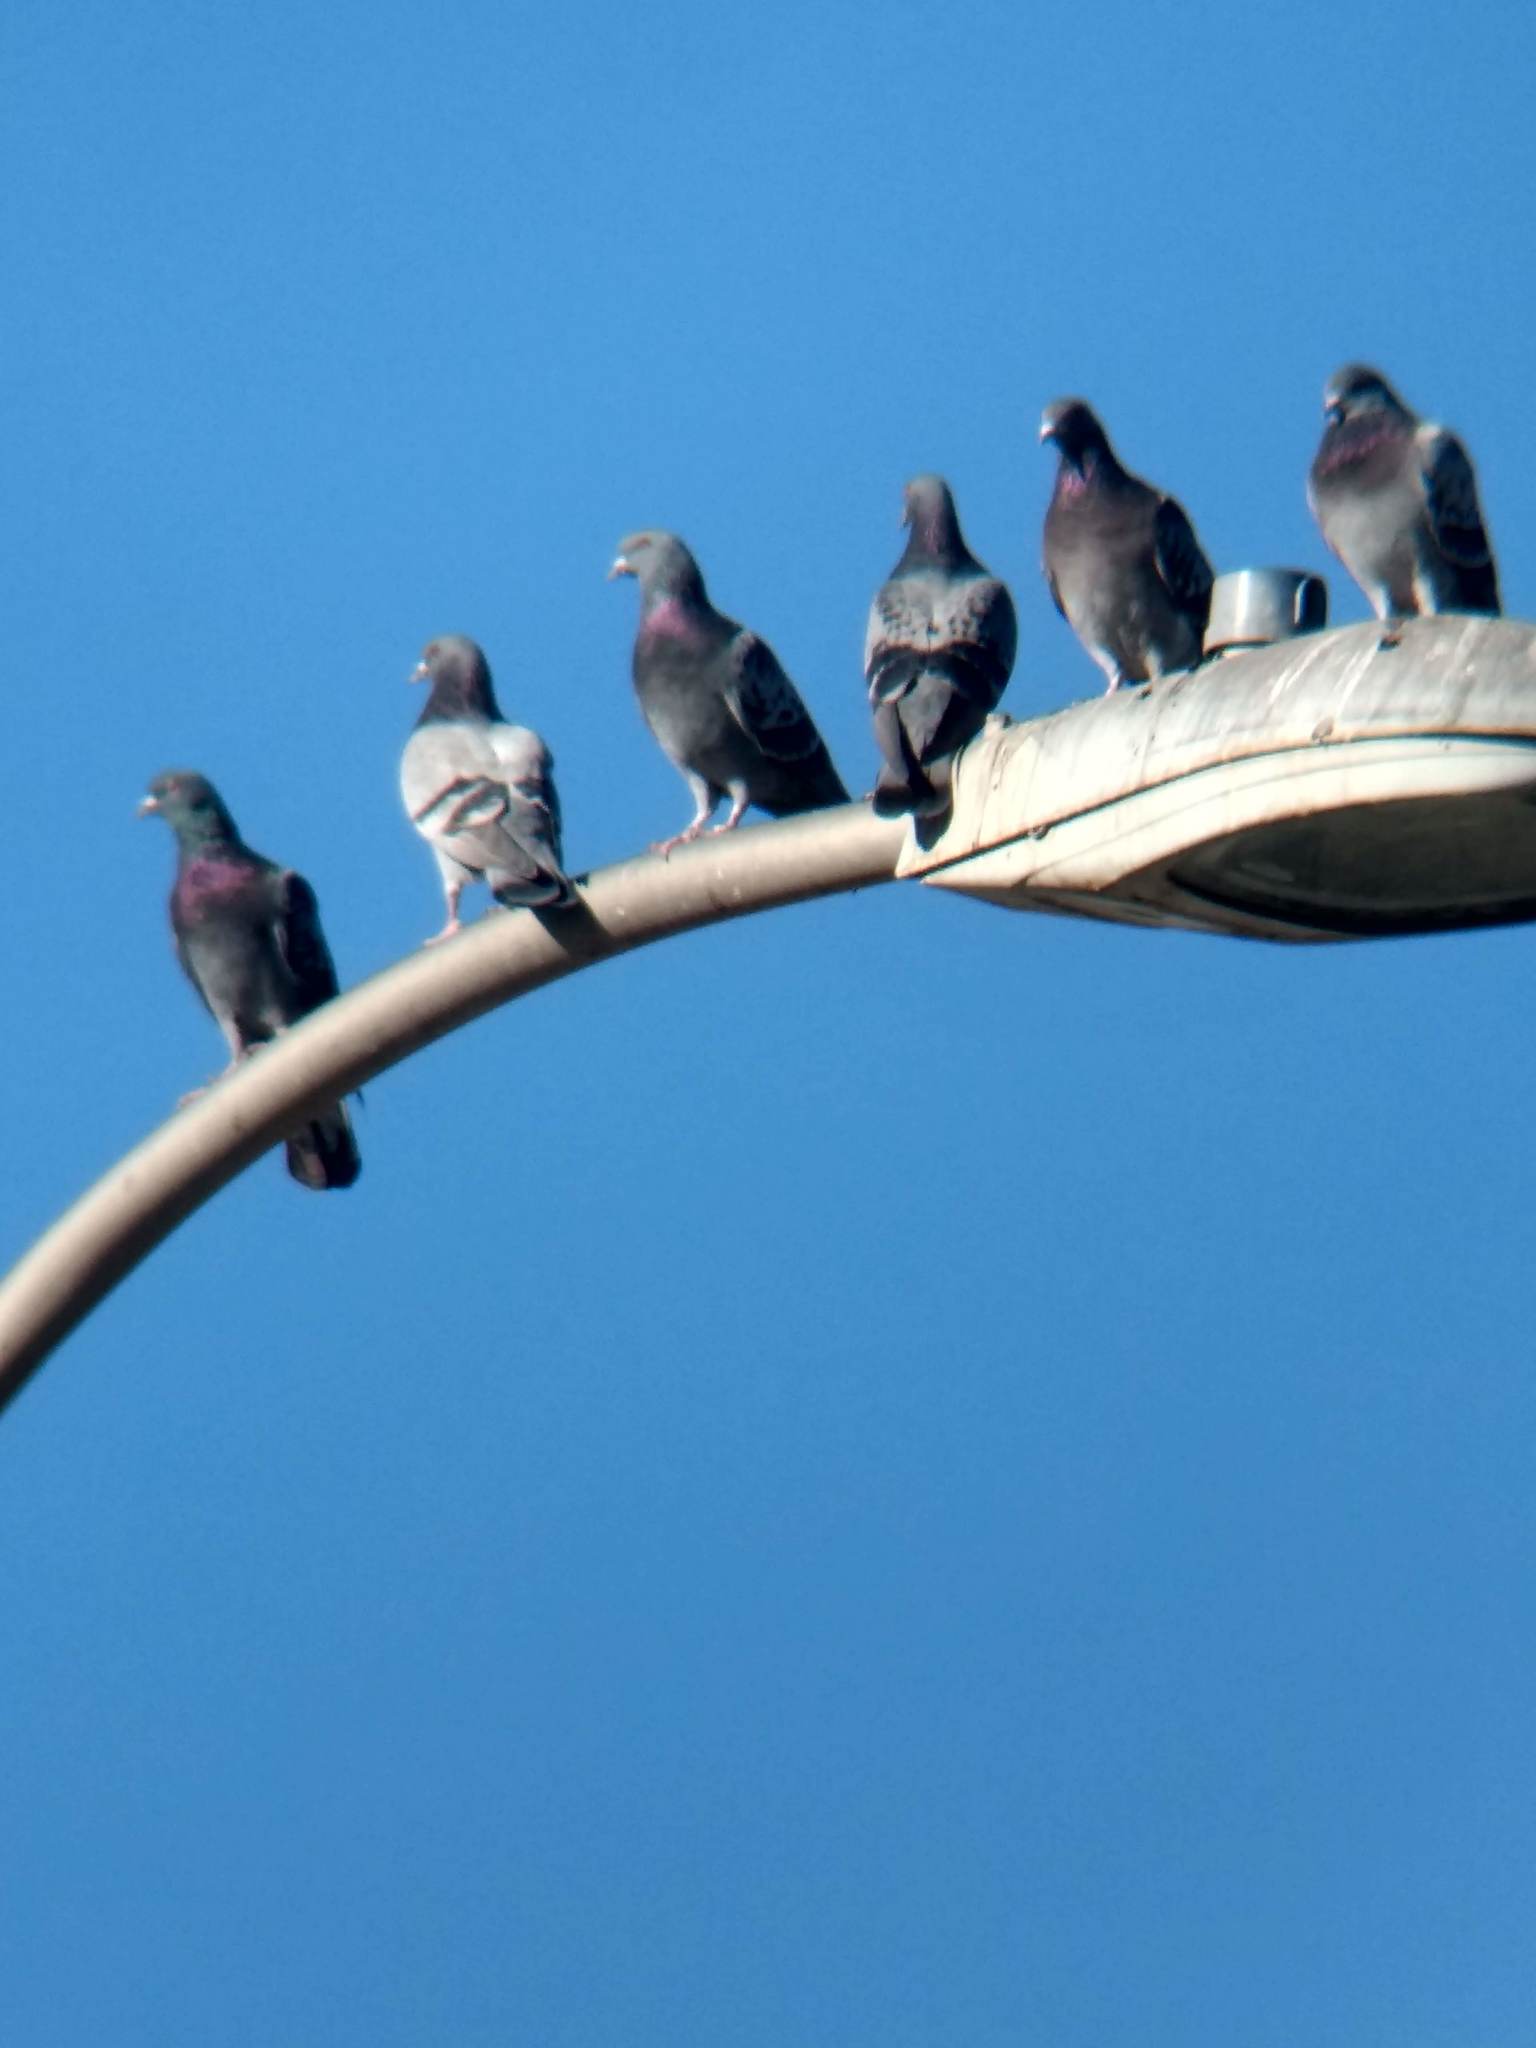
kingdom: Animalia
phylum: Chordata
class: Aves
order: Columbiformes
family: Columbidae
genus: Columba
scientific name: Columba livia
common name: Rock pigeon
